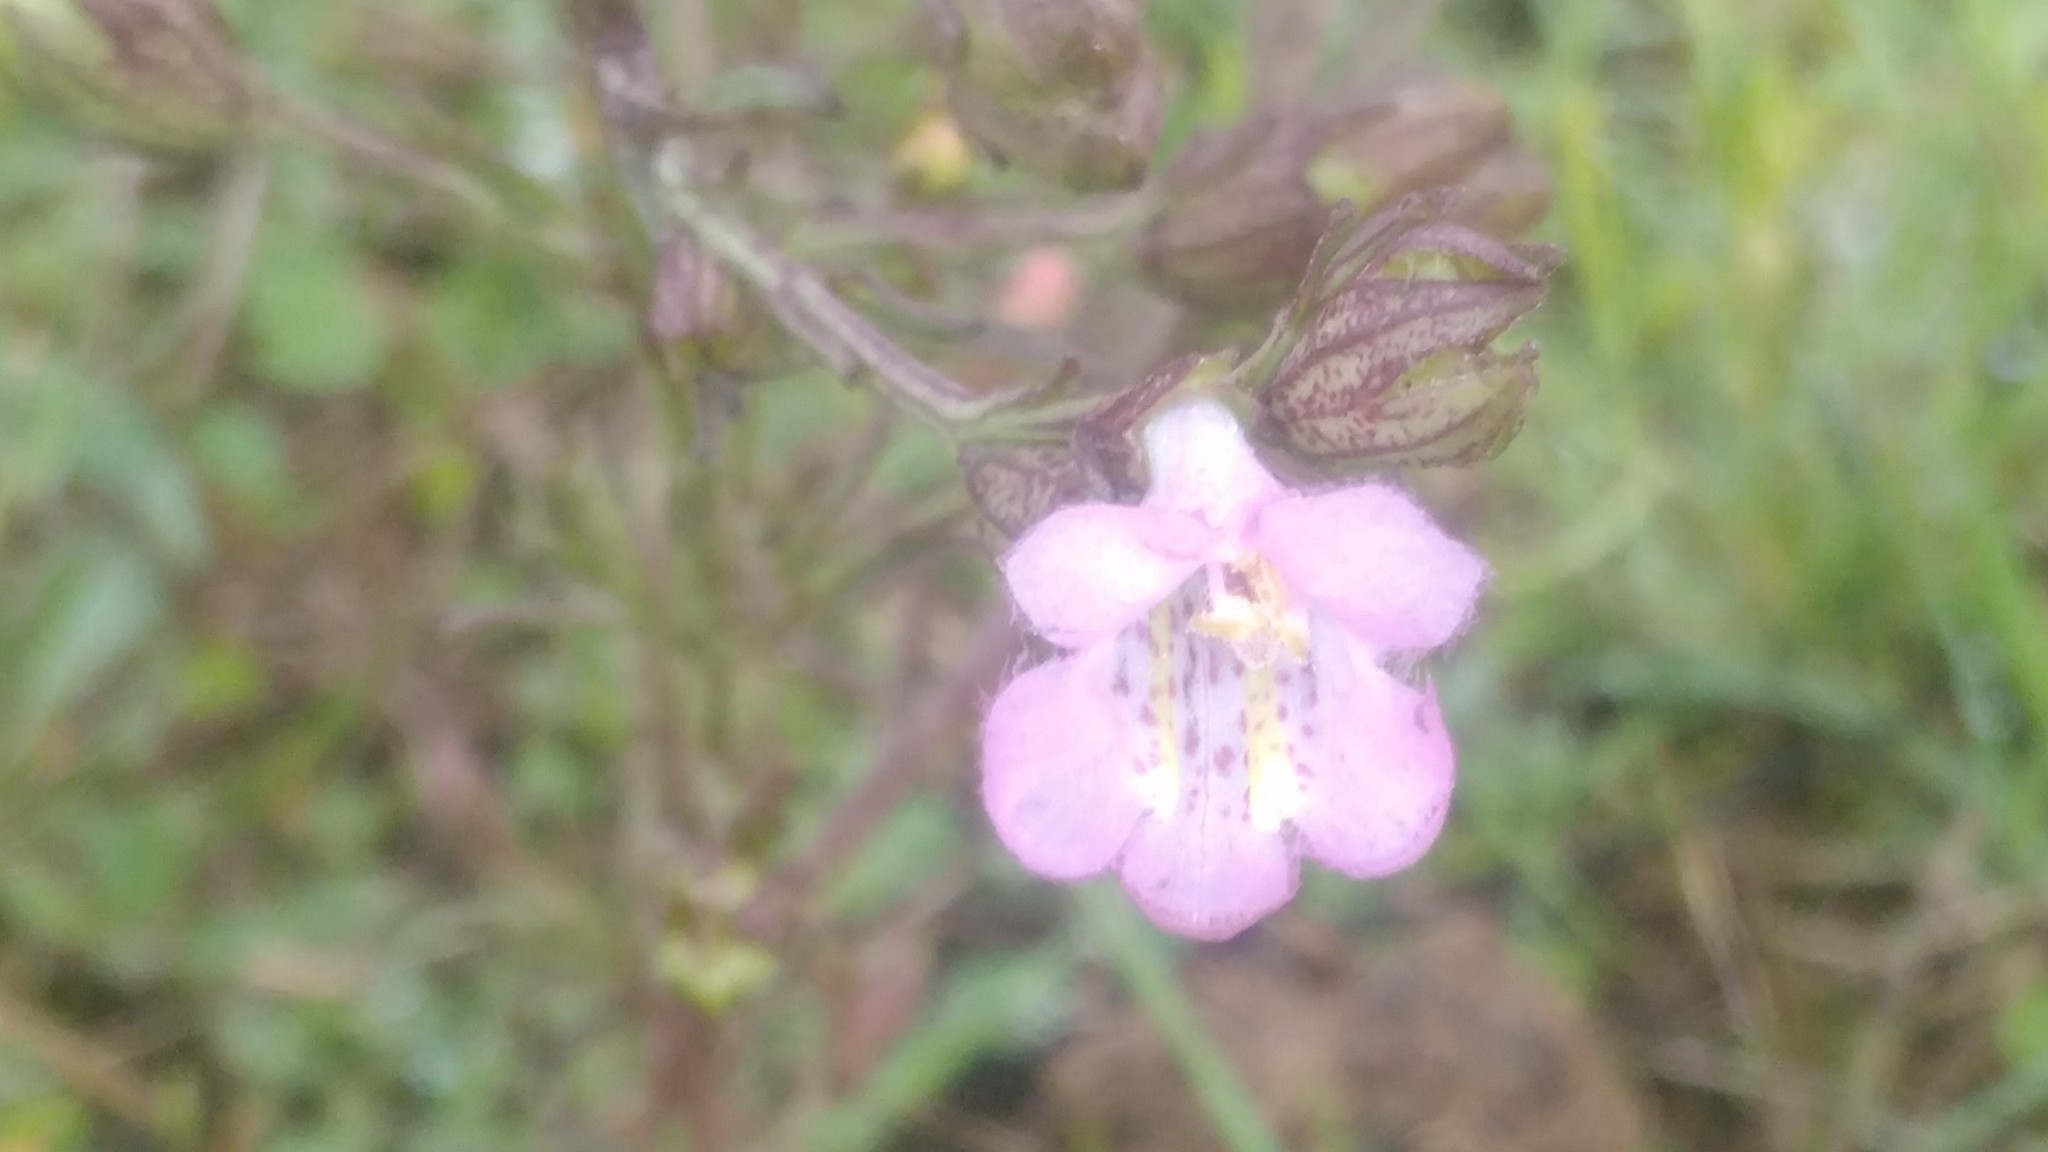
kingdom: Plantae
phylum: Tracheophyta
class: Magnoliopsida
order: Lamiales
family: Orobanchaceae
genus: Agalinis
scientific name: Agalinis communis
